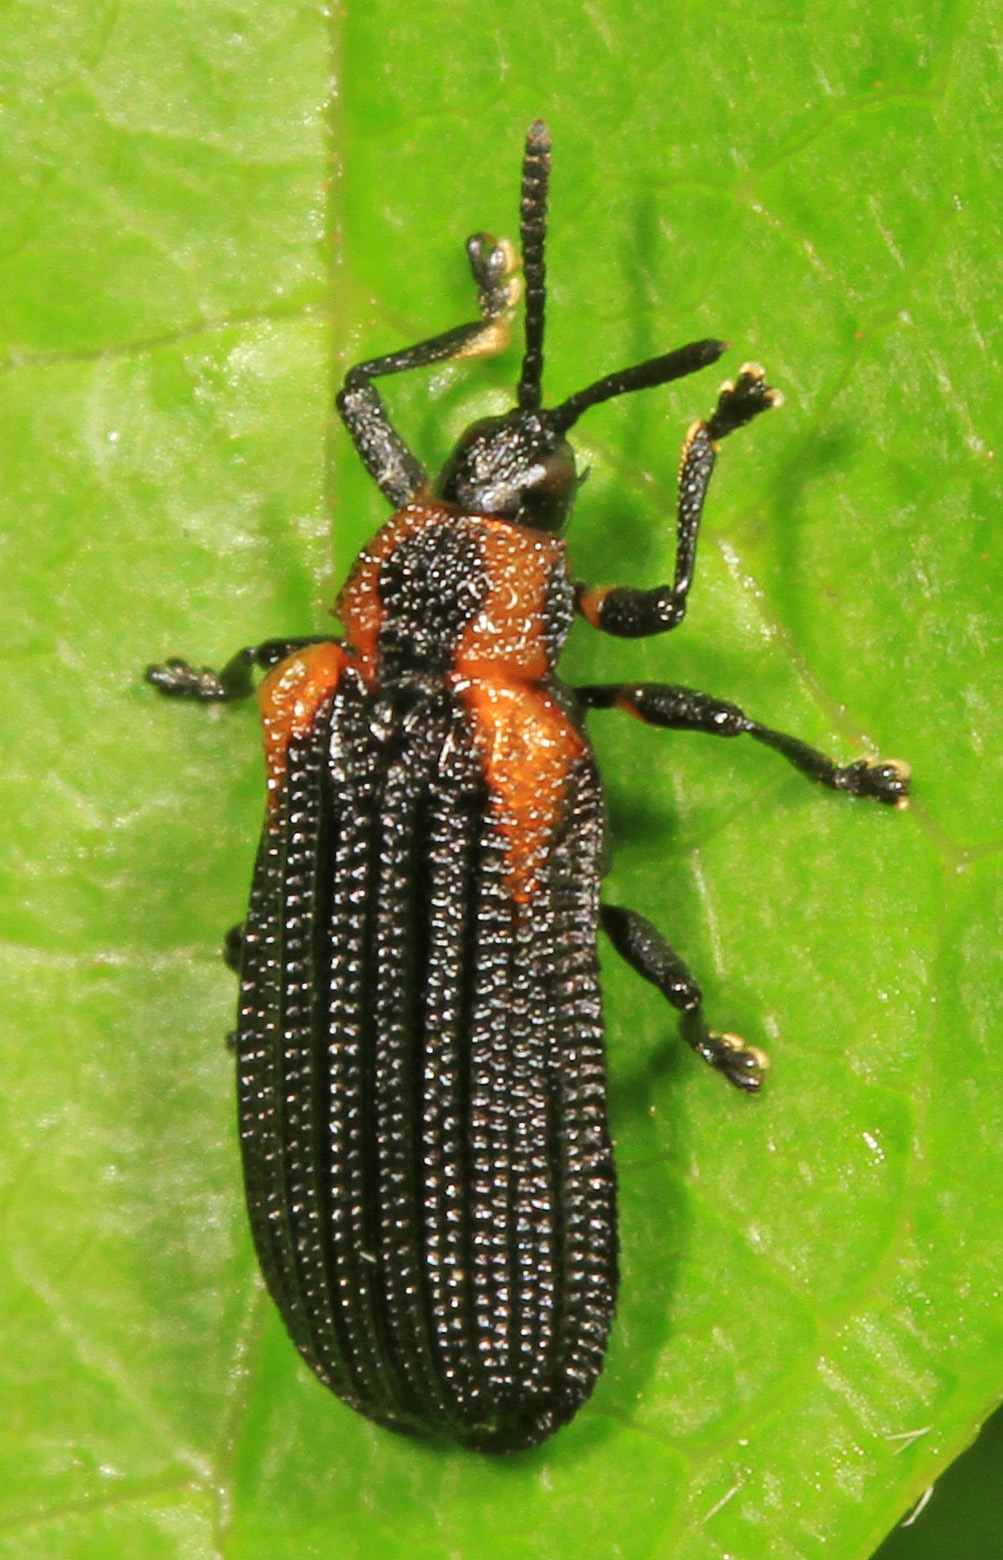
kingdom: Animalia
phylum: Arthropoda
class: Insecta
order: Coleoptera
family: Chrysomelidae
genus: Odontota
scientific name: Odontota scapularis
